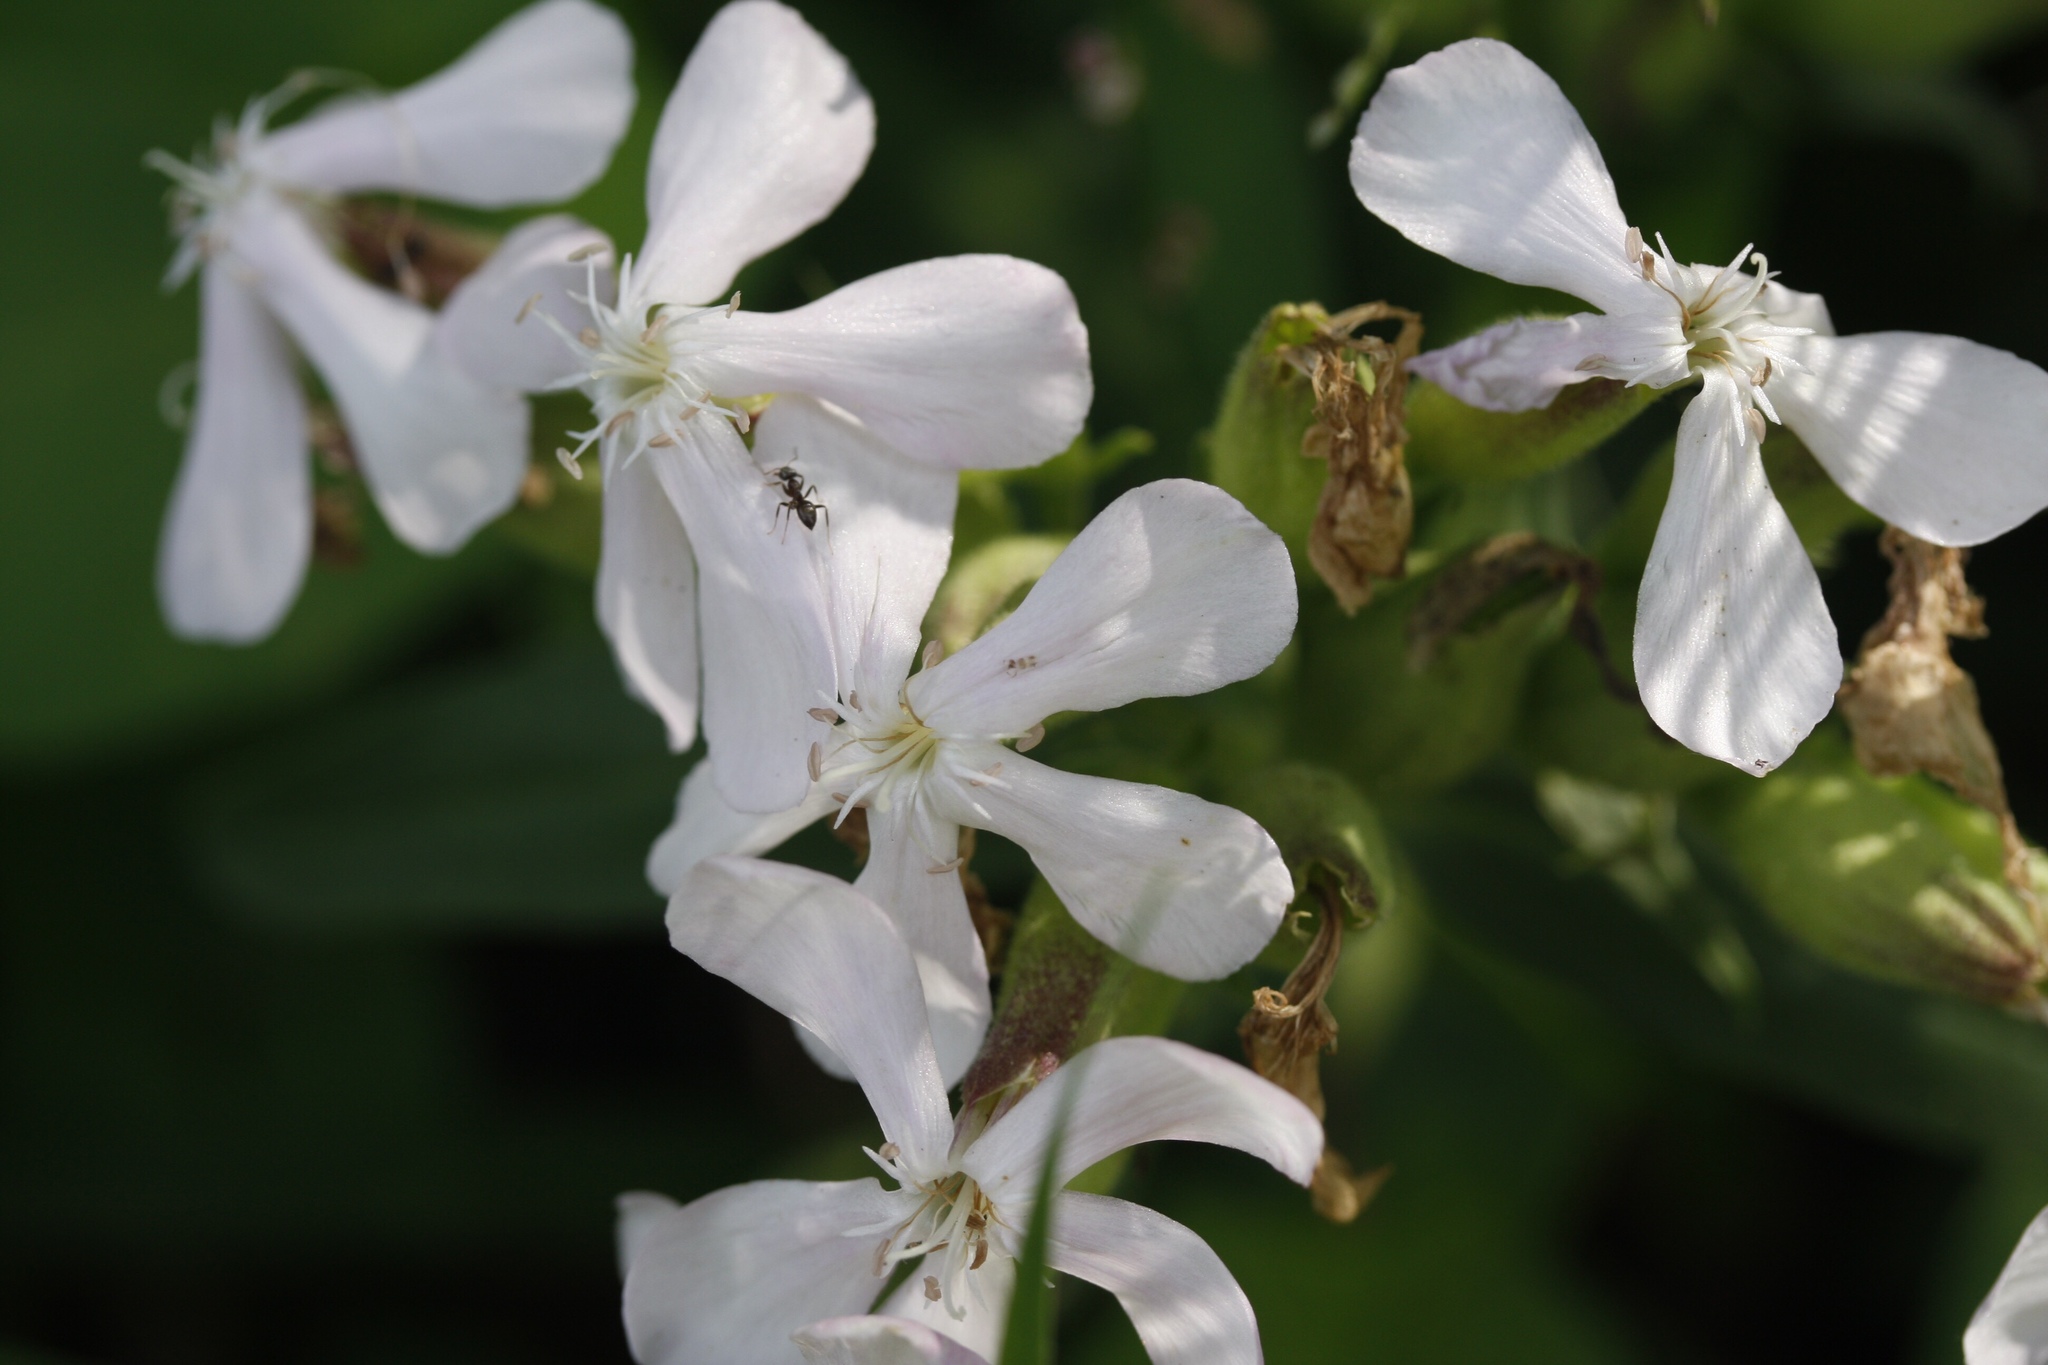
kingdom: Plantae
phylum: Tracheophyta
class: Magnoliopsida
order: Caryophyllales
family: Caryophyllaceae
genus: Saponaria
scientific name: Saponaria officinalis
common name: Soapwort
